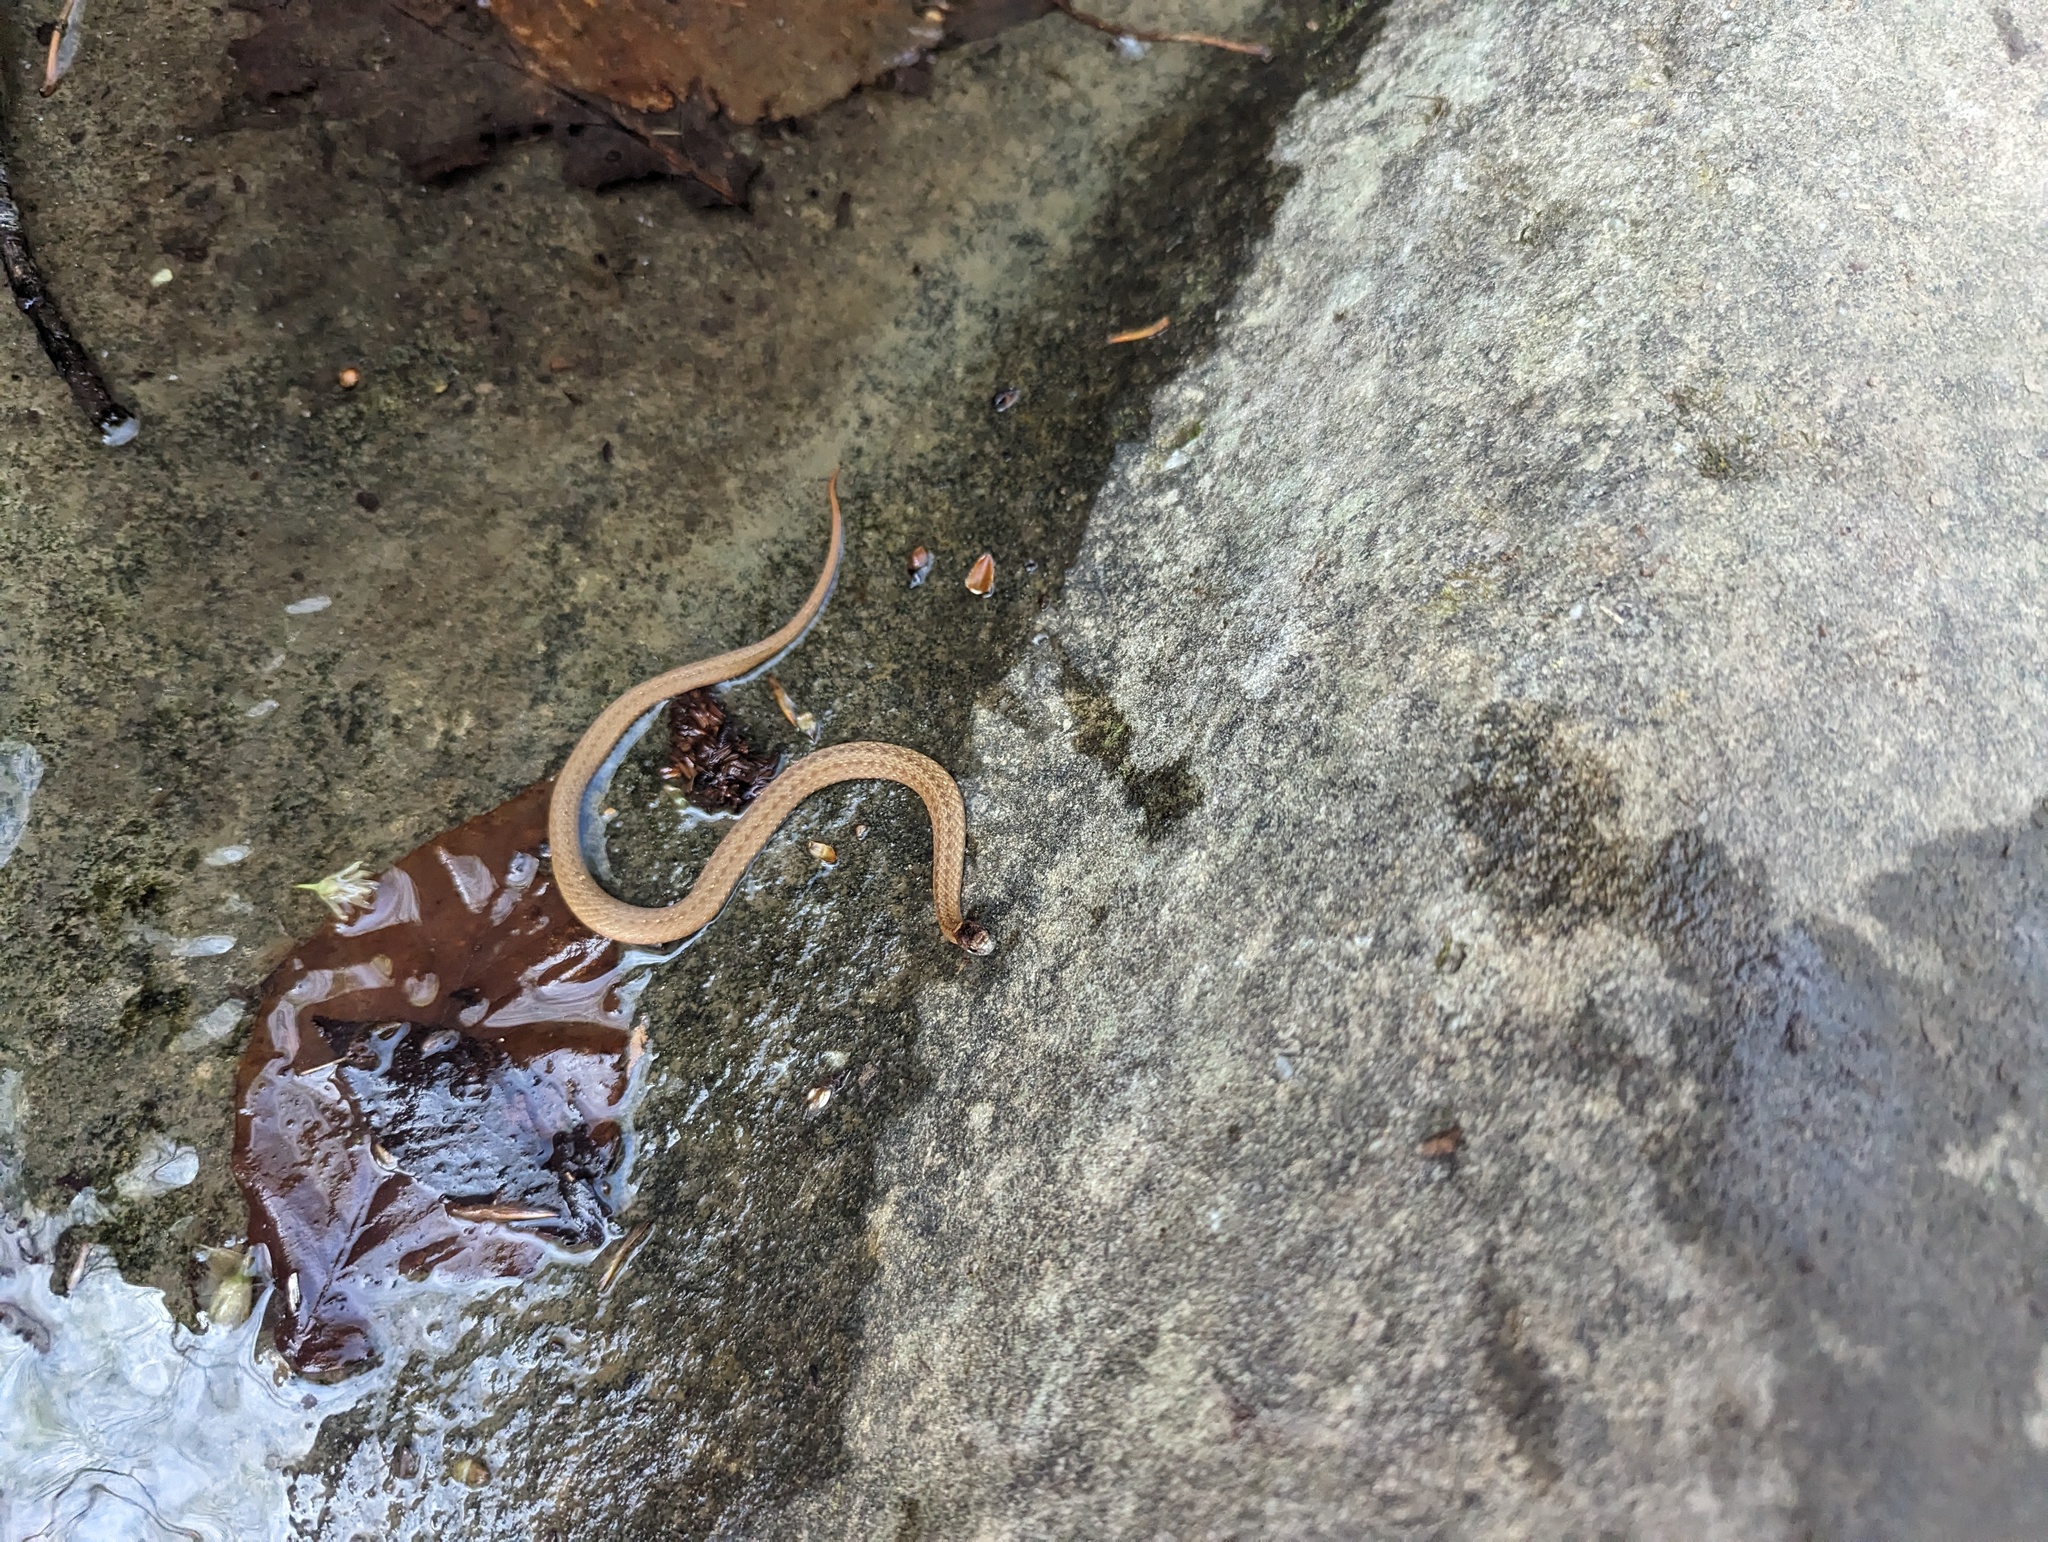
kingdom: Animalia
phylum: Chordata
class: Squamata
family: Colubridae
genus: Storeria
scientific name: Storeria occipitomaculata
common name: Redbelly snake
